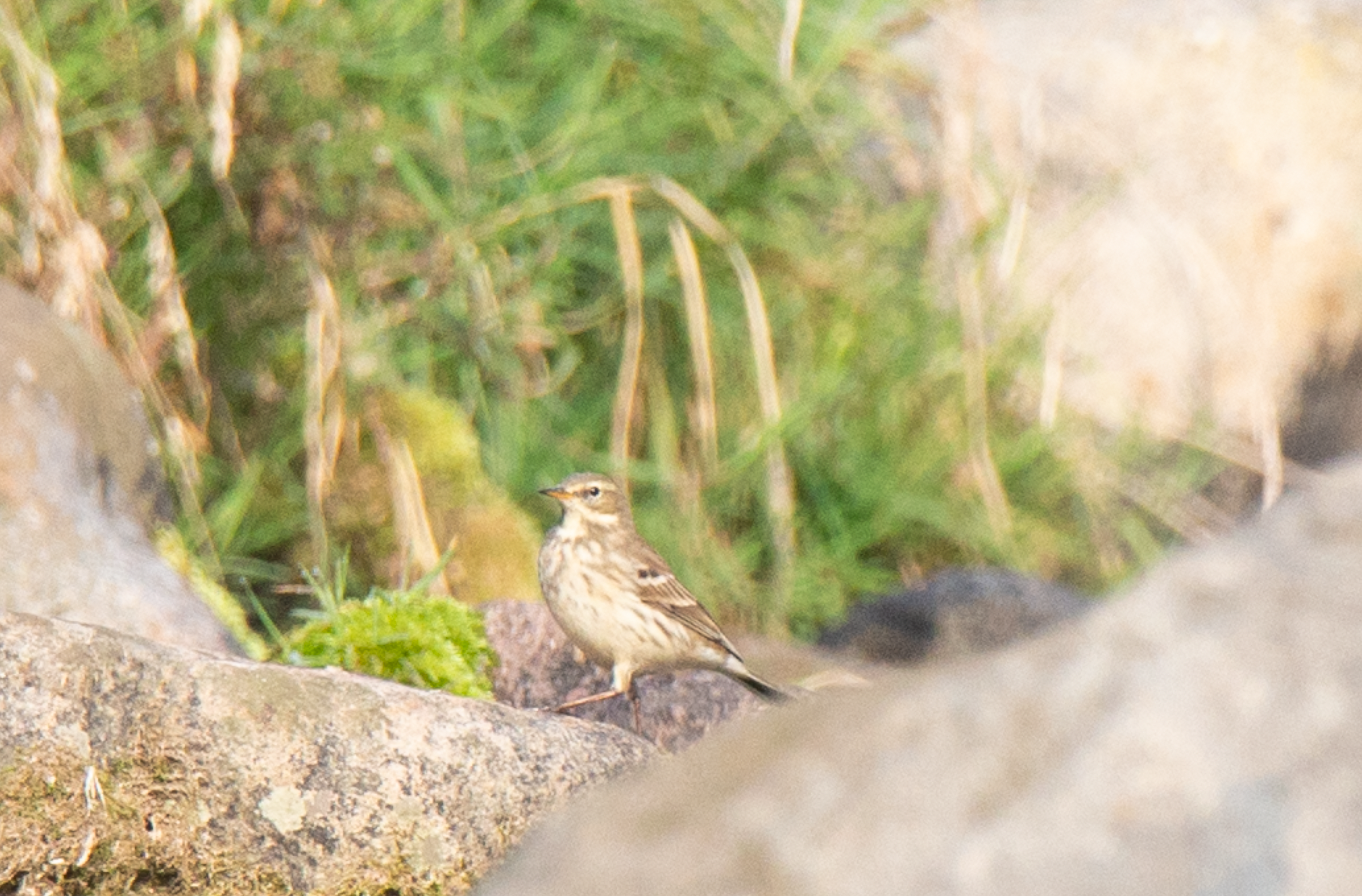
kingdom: Animalia
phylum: Chordata
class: Aves
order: Passeriformes
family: Motacillidae
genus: Anthus
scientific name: Anthus spinoletta
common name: Water pipit
